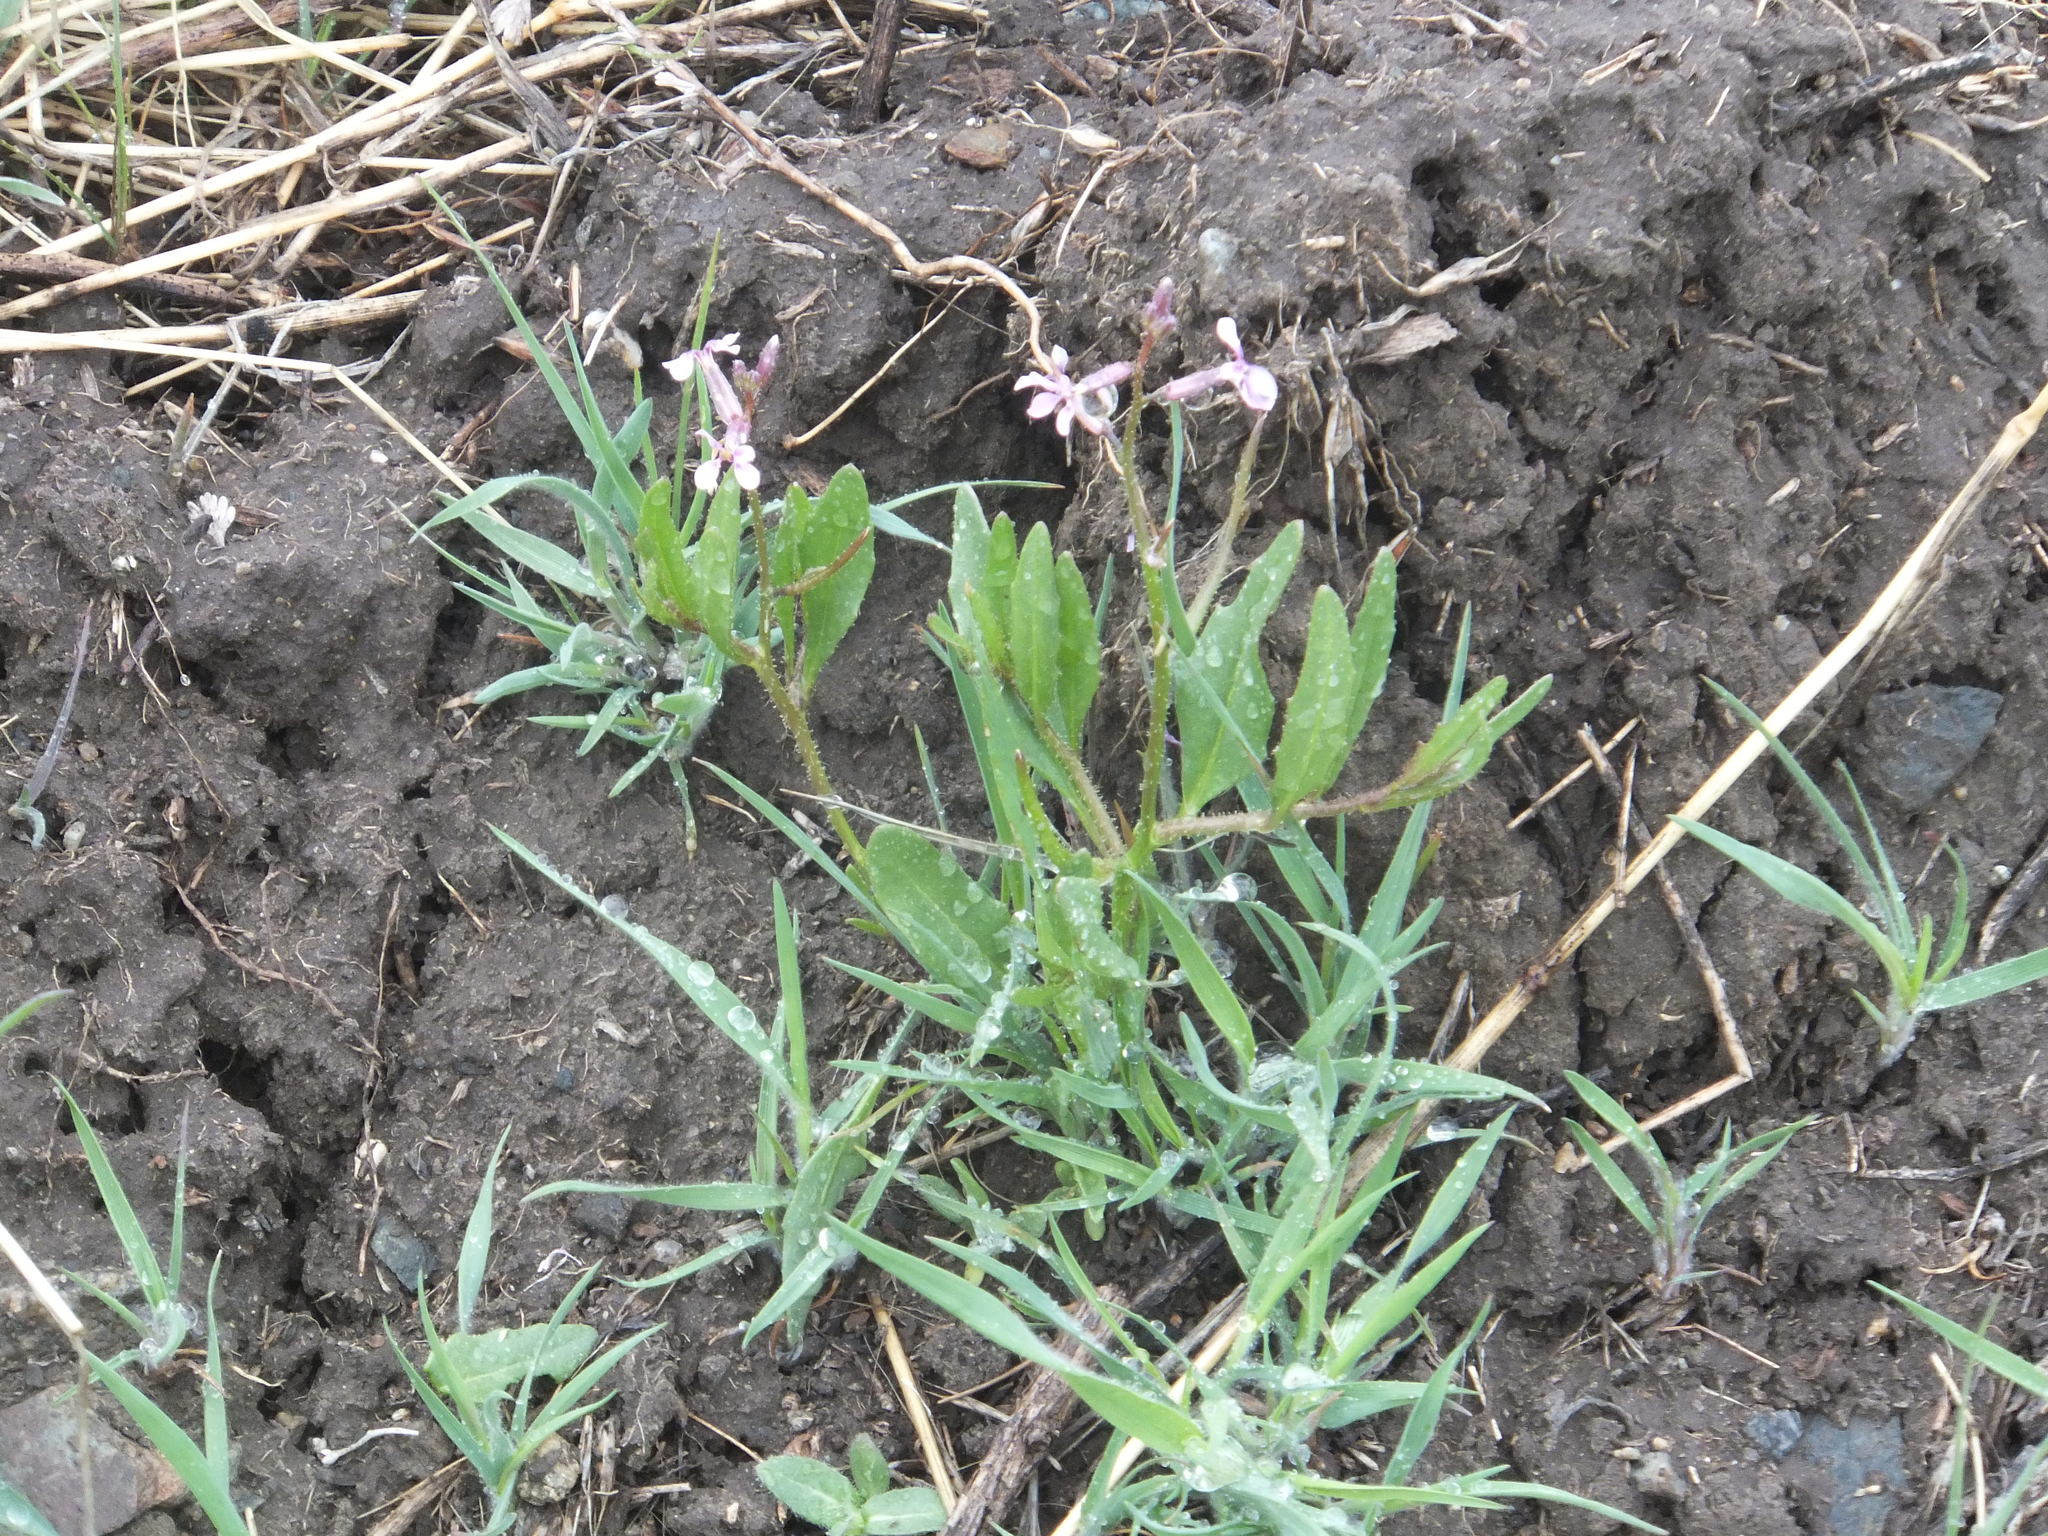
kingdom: Plantae
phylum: Tracheophyta
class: Magnoliopsida
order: Brassicales
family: Brassicaceae
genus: Chorispora
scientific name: Chorispora tenella
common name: Crossflower
